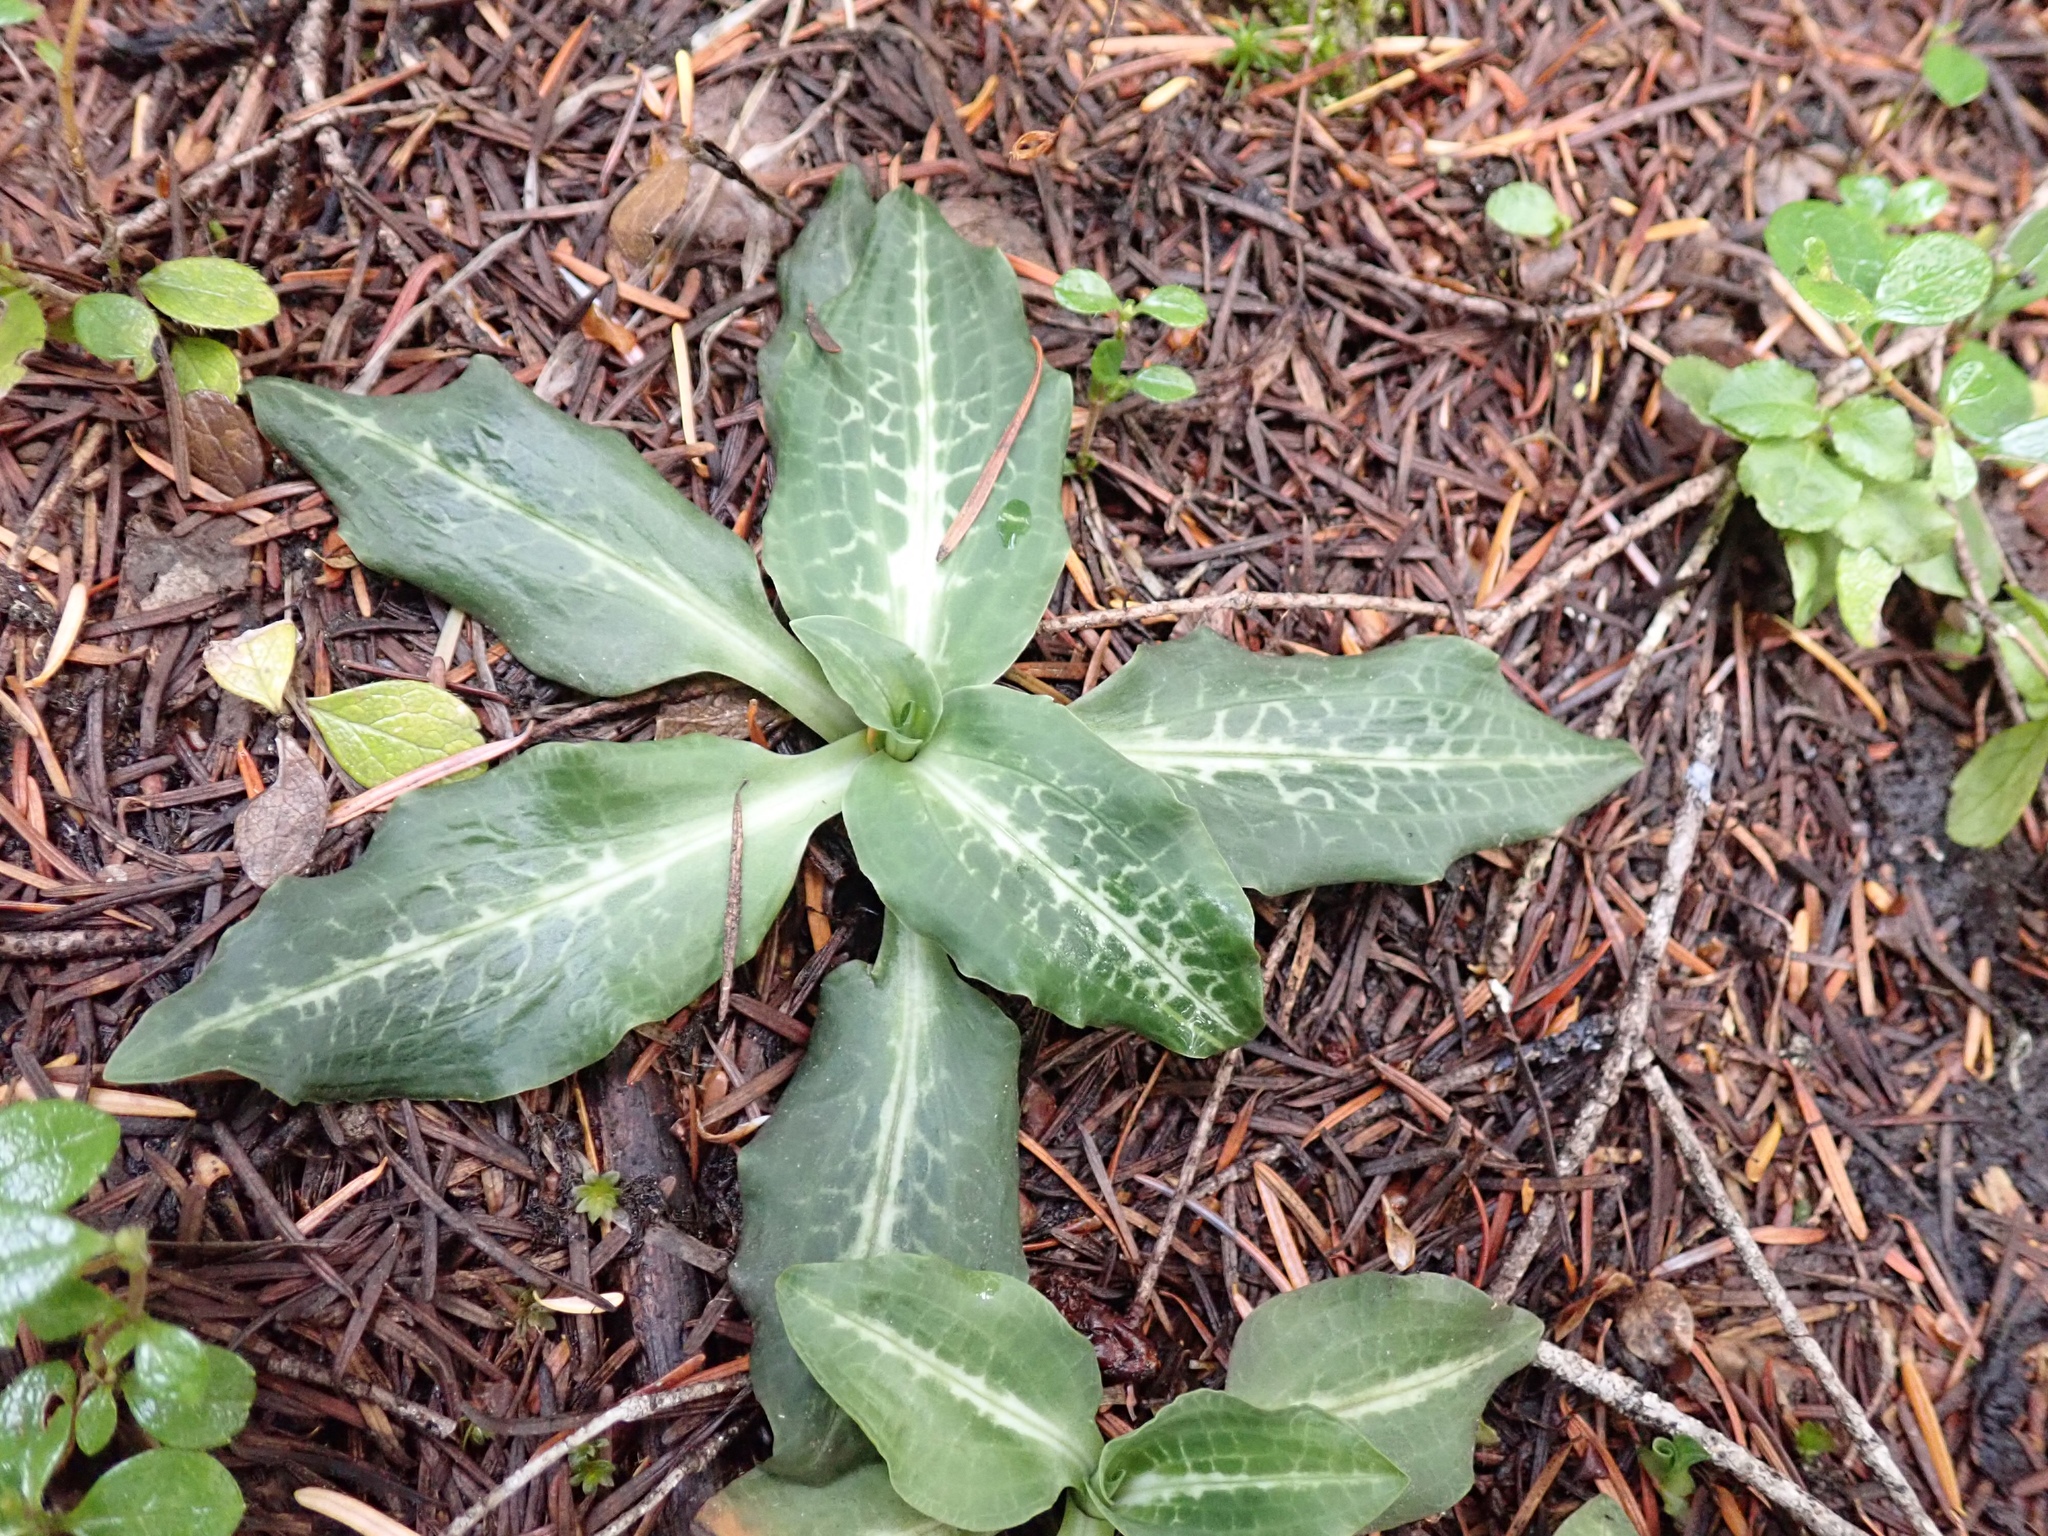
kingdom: Plantae
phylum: Tracheophyta
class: Liliopsida
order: Asparagales
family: Orchidaceae
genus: Goodyera
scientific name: Goodyera oblongifolia
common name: Giant rattlesnake-plantain
